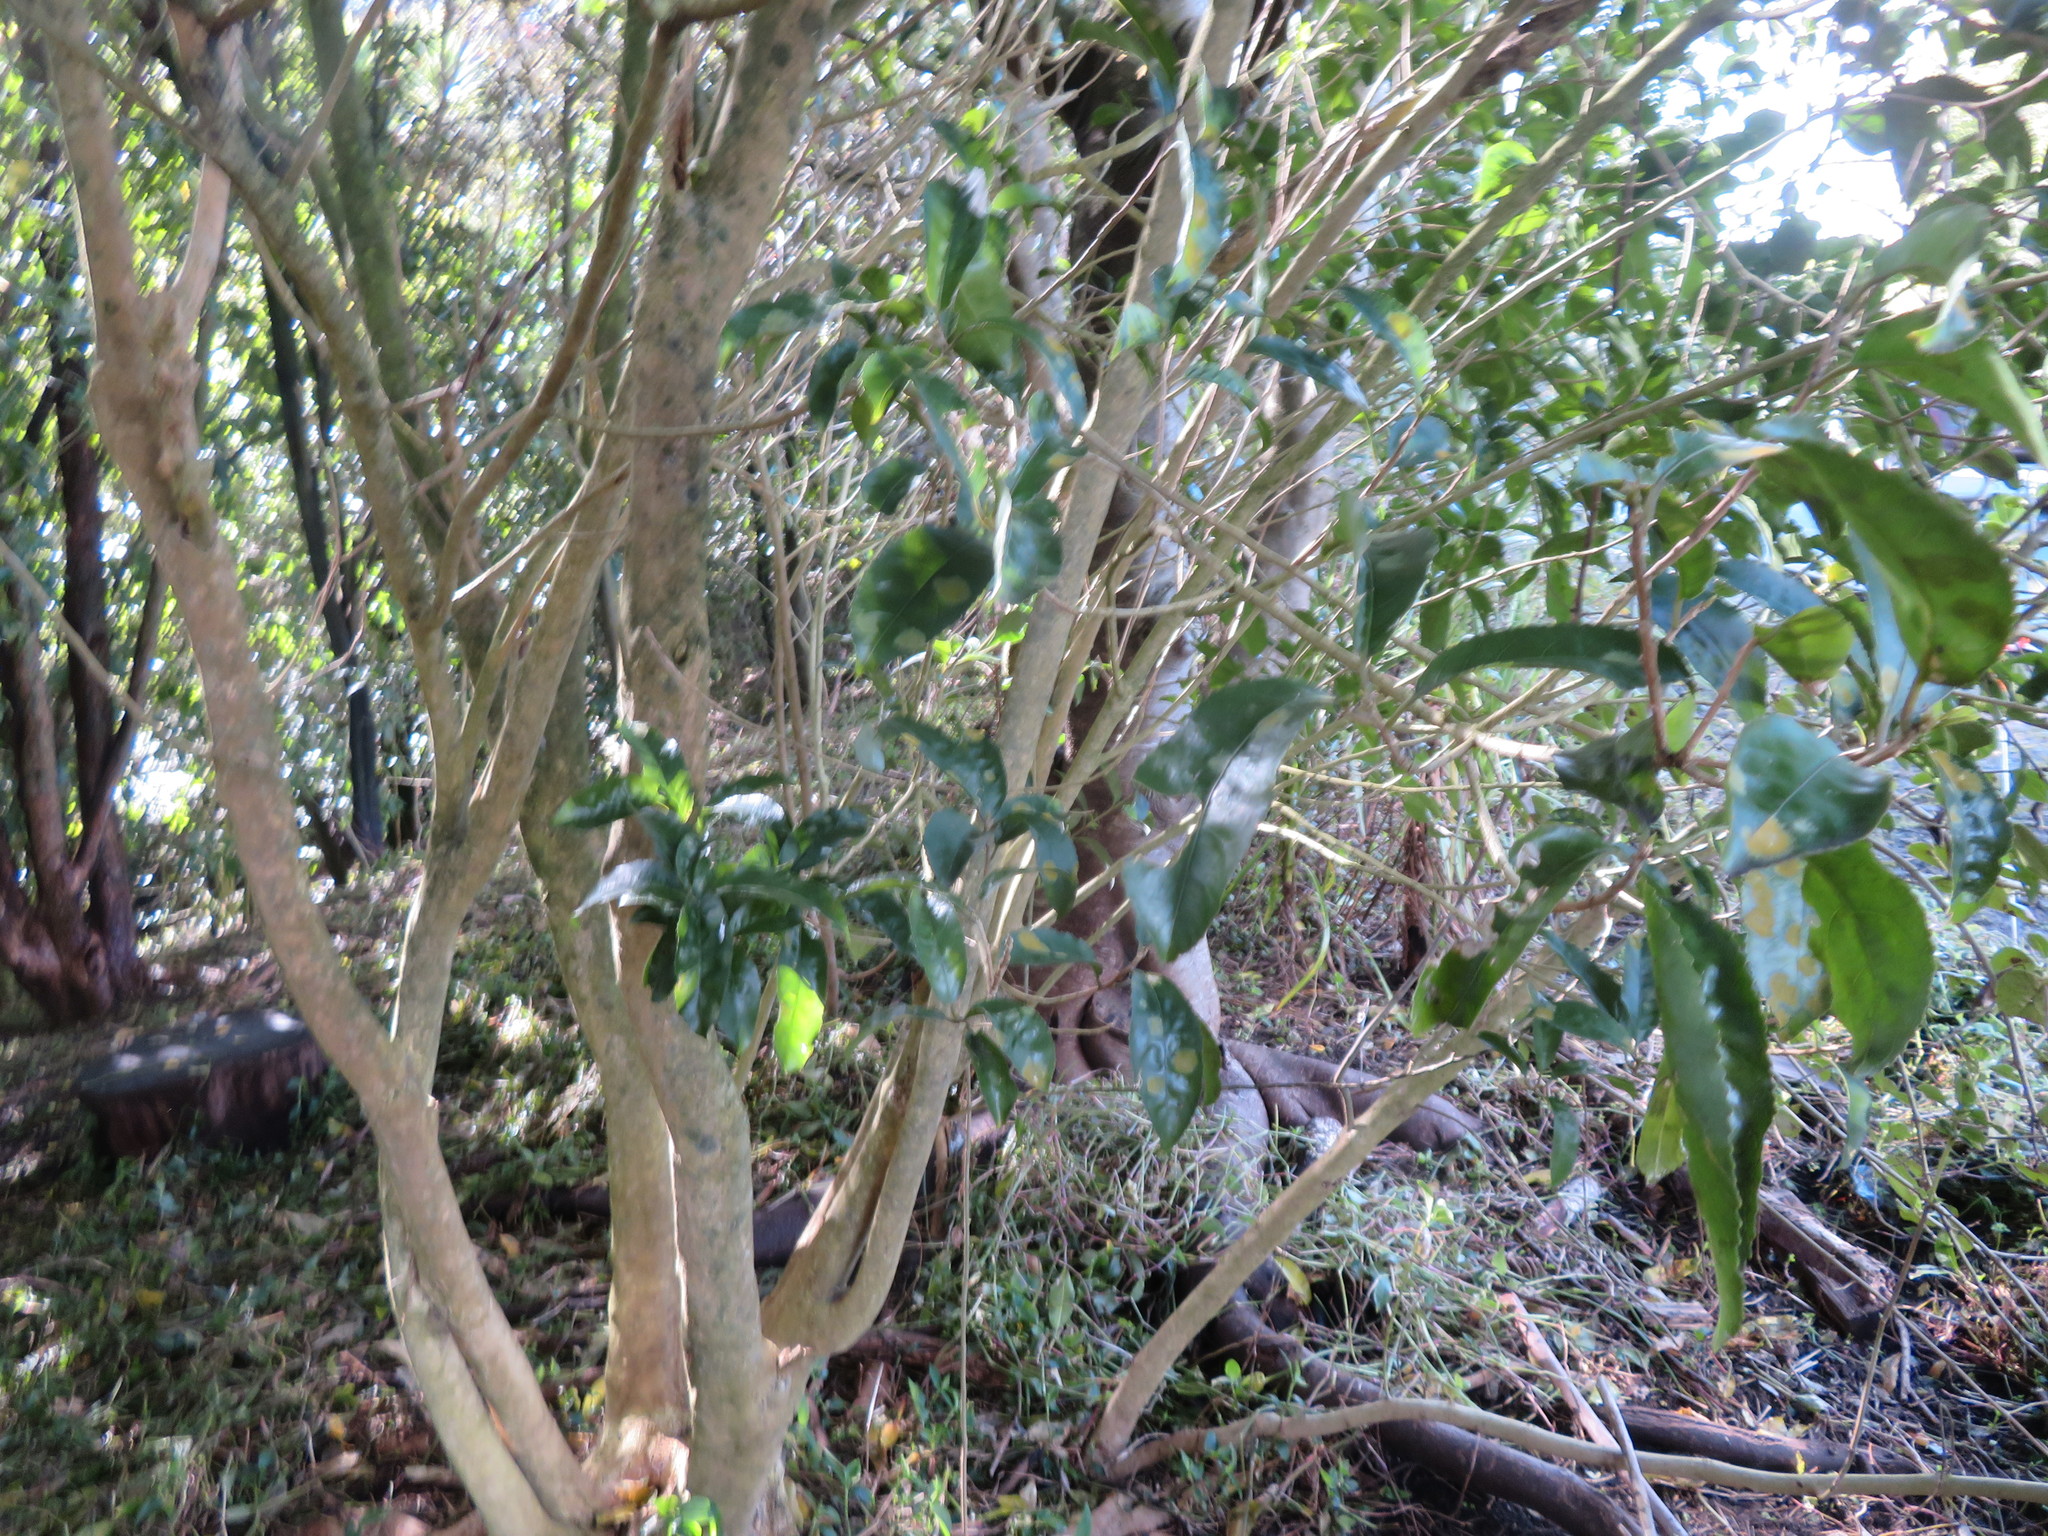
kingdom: Plantae
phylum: Tracheophyta
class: Magnoliopsida
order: Malpighiales
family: Violaceae
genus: Melicytus
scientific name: Melicytus ramiflorus
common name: Mahoe
